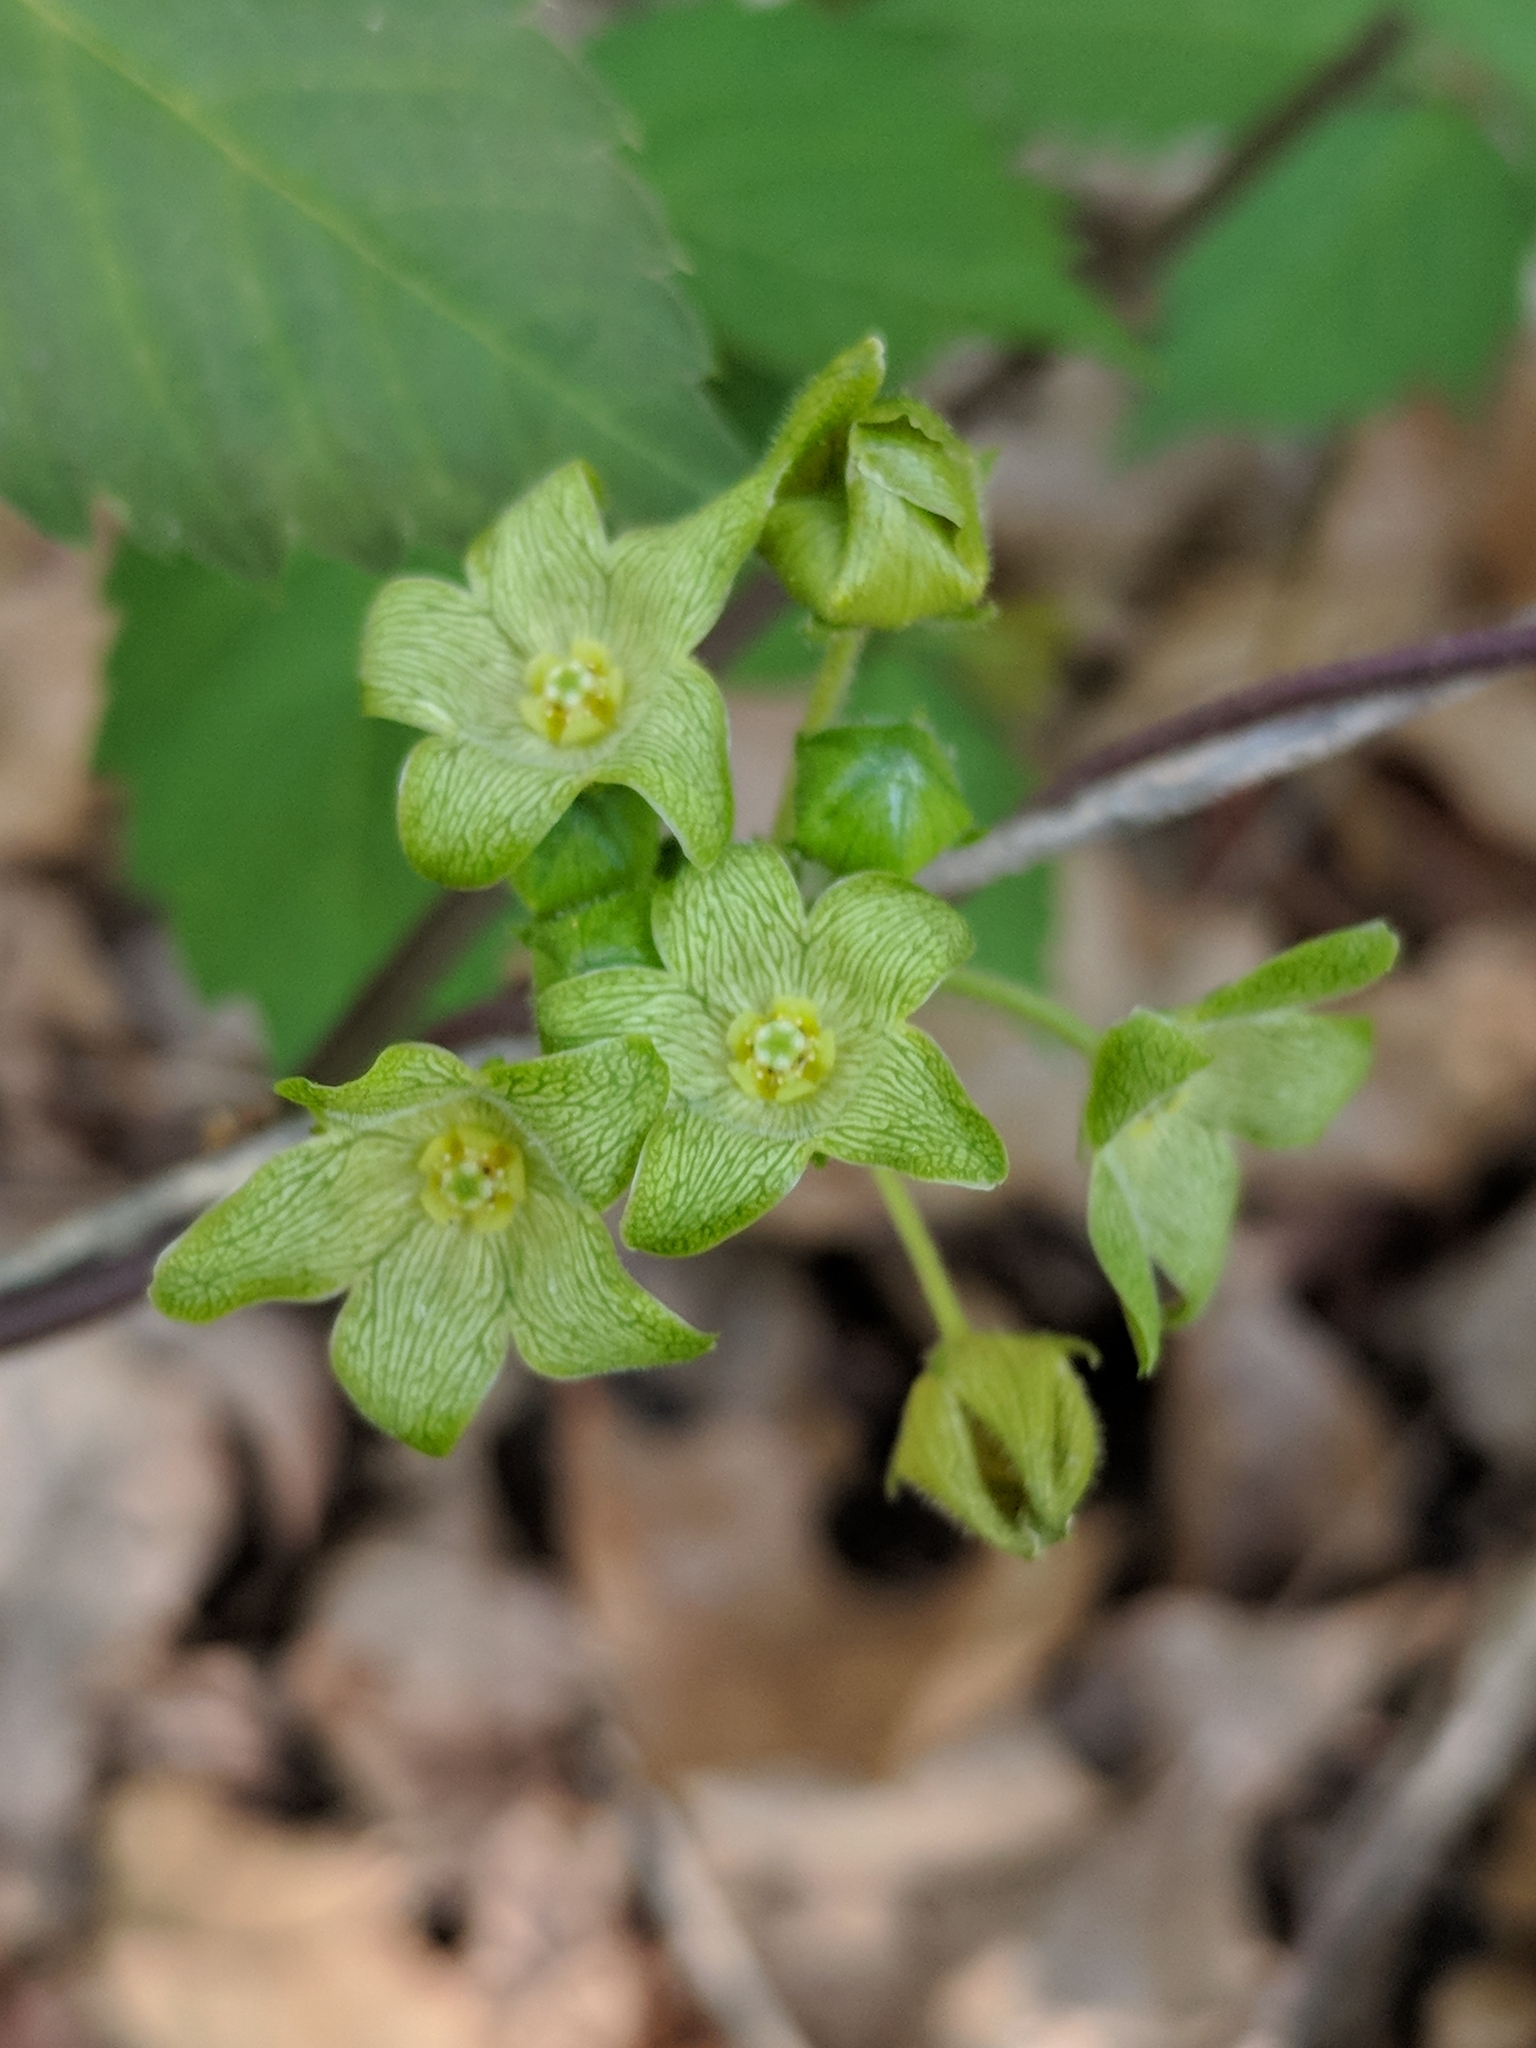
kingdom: Plantae
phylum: Tracheophyta
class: Magnoliopsida
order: Gentianales
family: Apocynaceae
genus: Matelea
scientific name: Matelea edwardsensis
